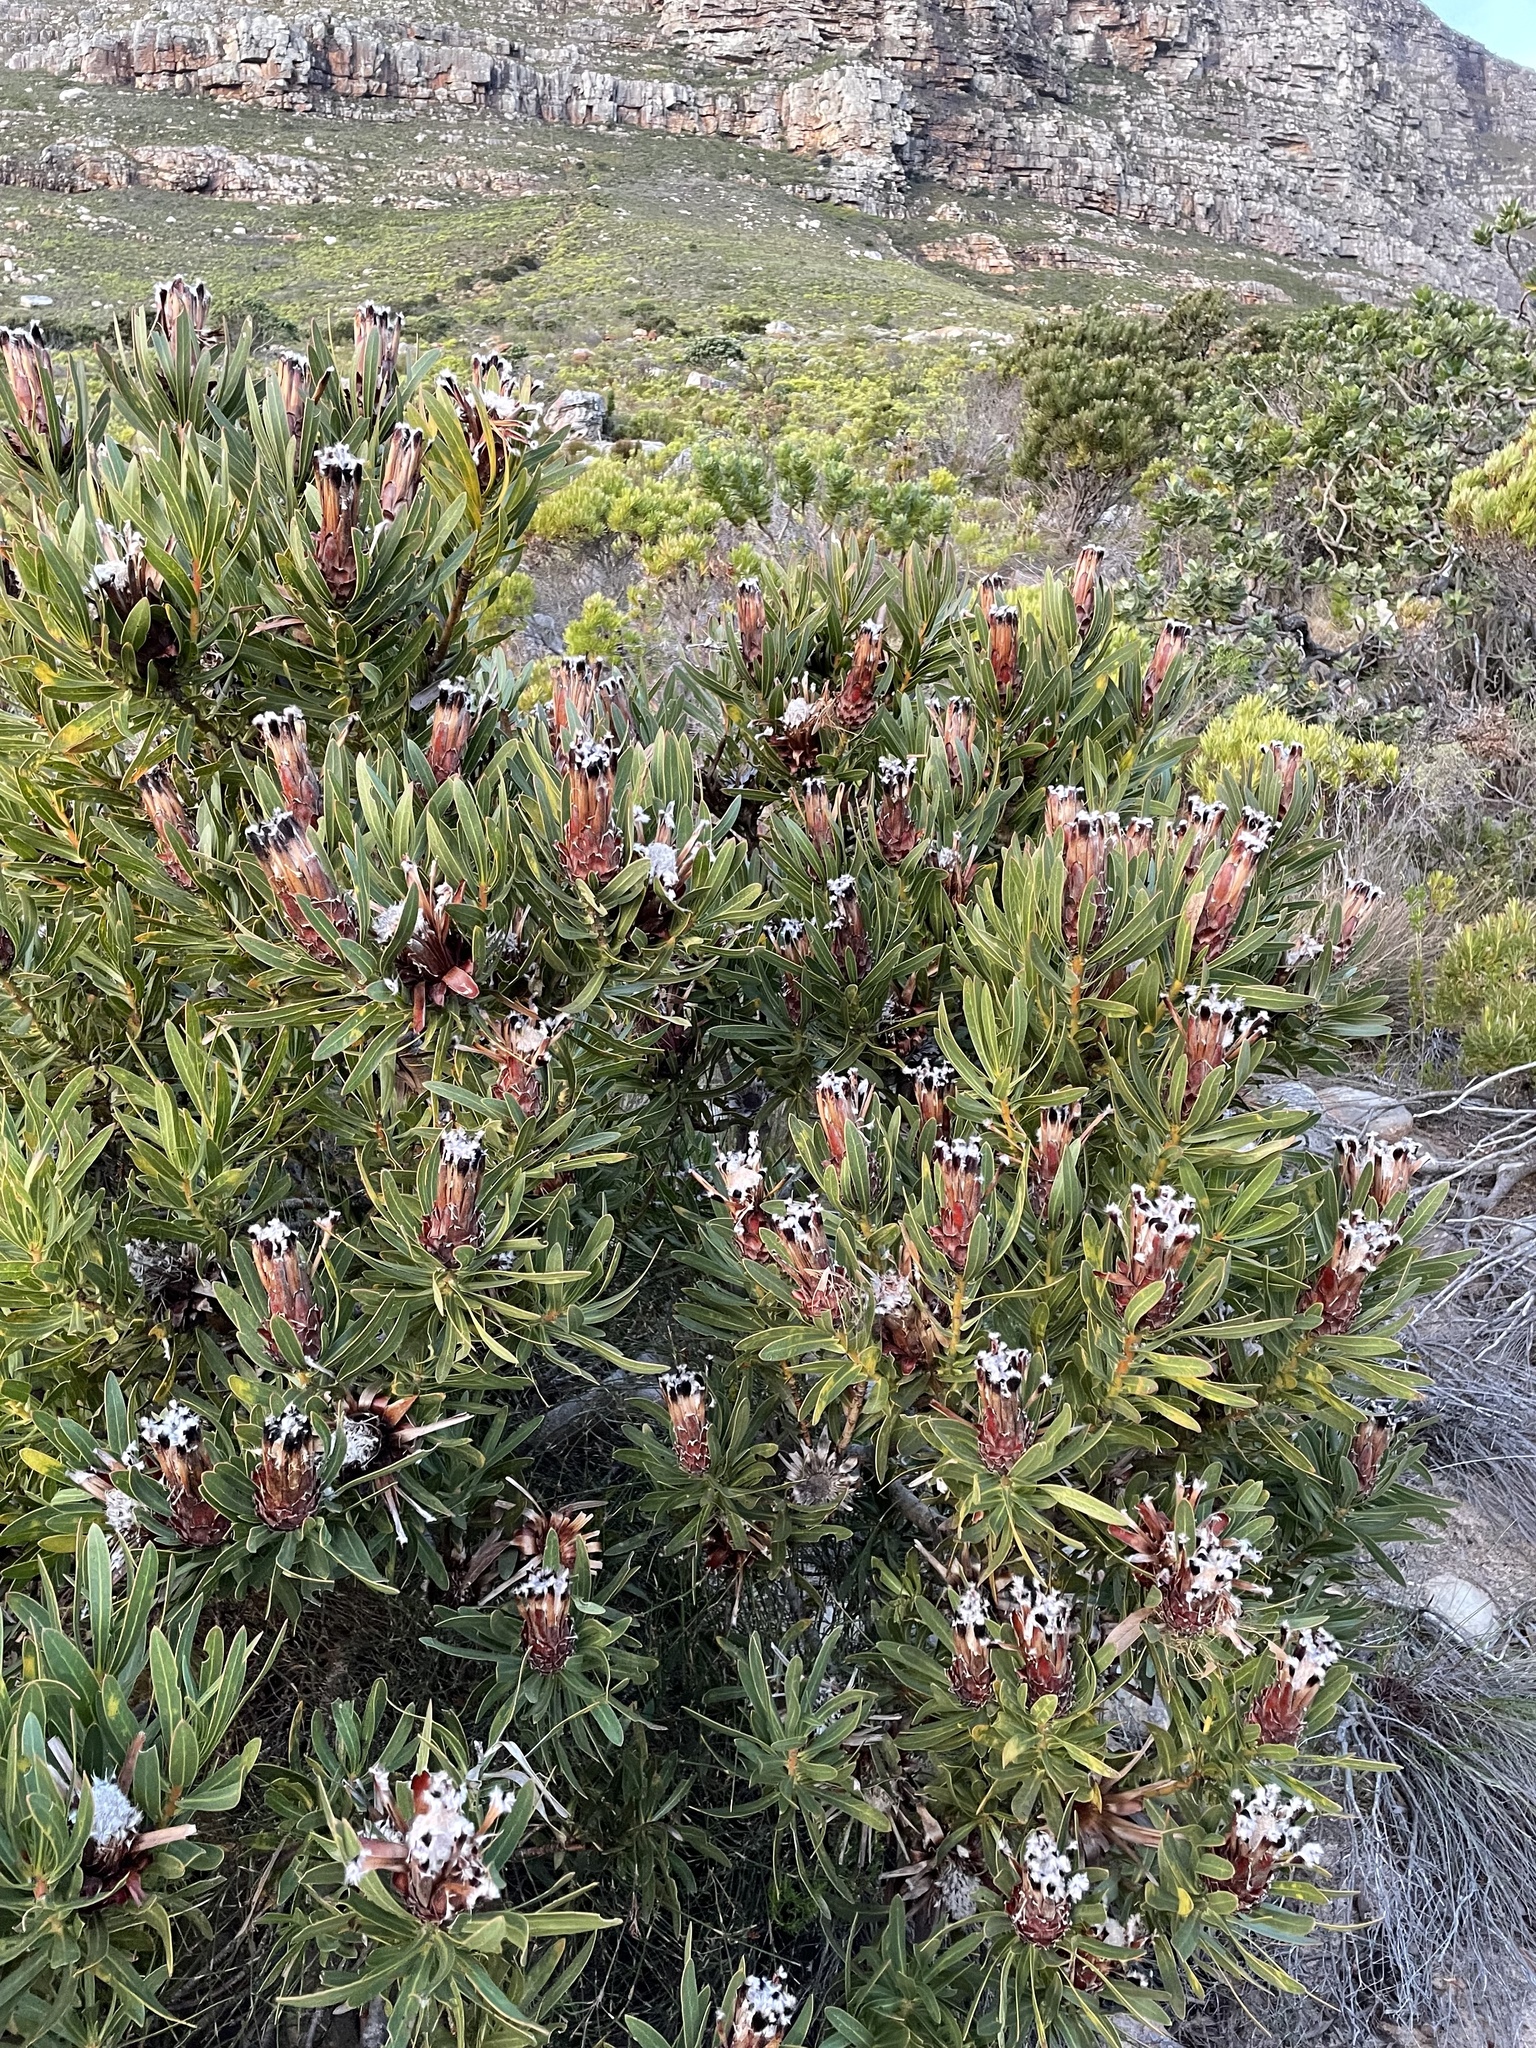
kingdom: Plantae
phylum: Tracheophyta
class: Magnoliopsida
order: Proteales
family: Proteaceae
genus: Protea
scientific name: Protea lepidocarpodendron
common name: Black-bearded protea
